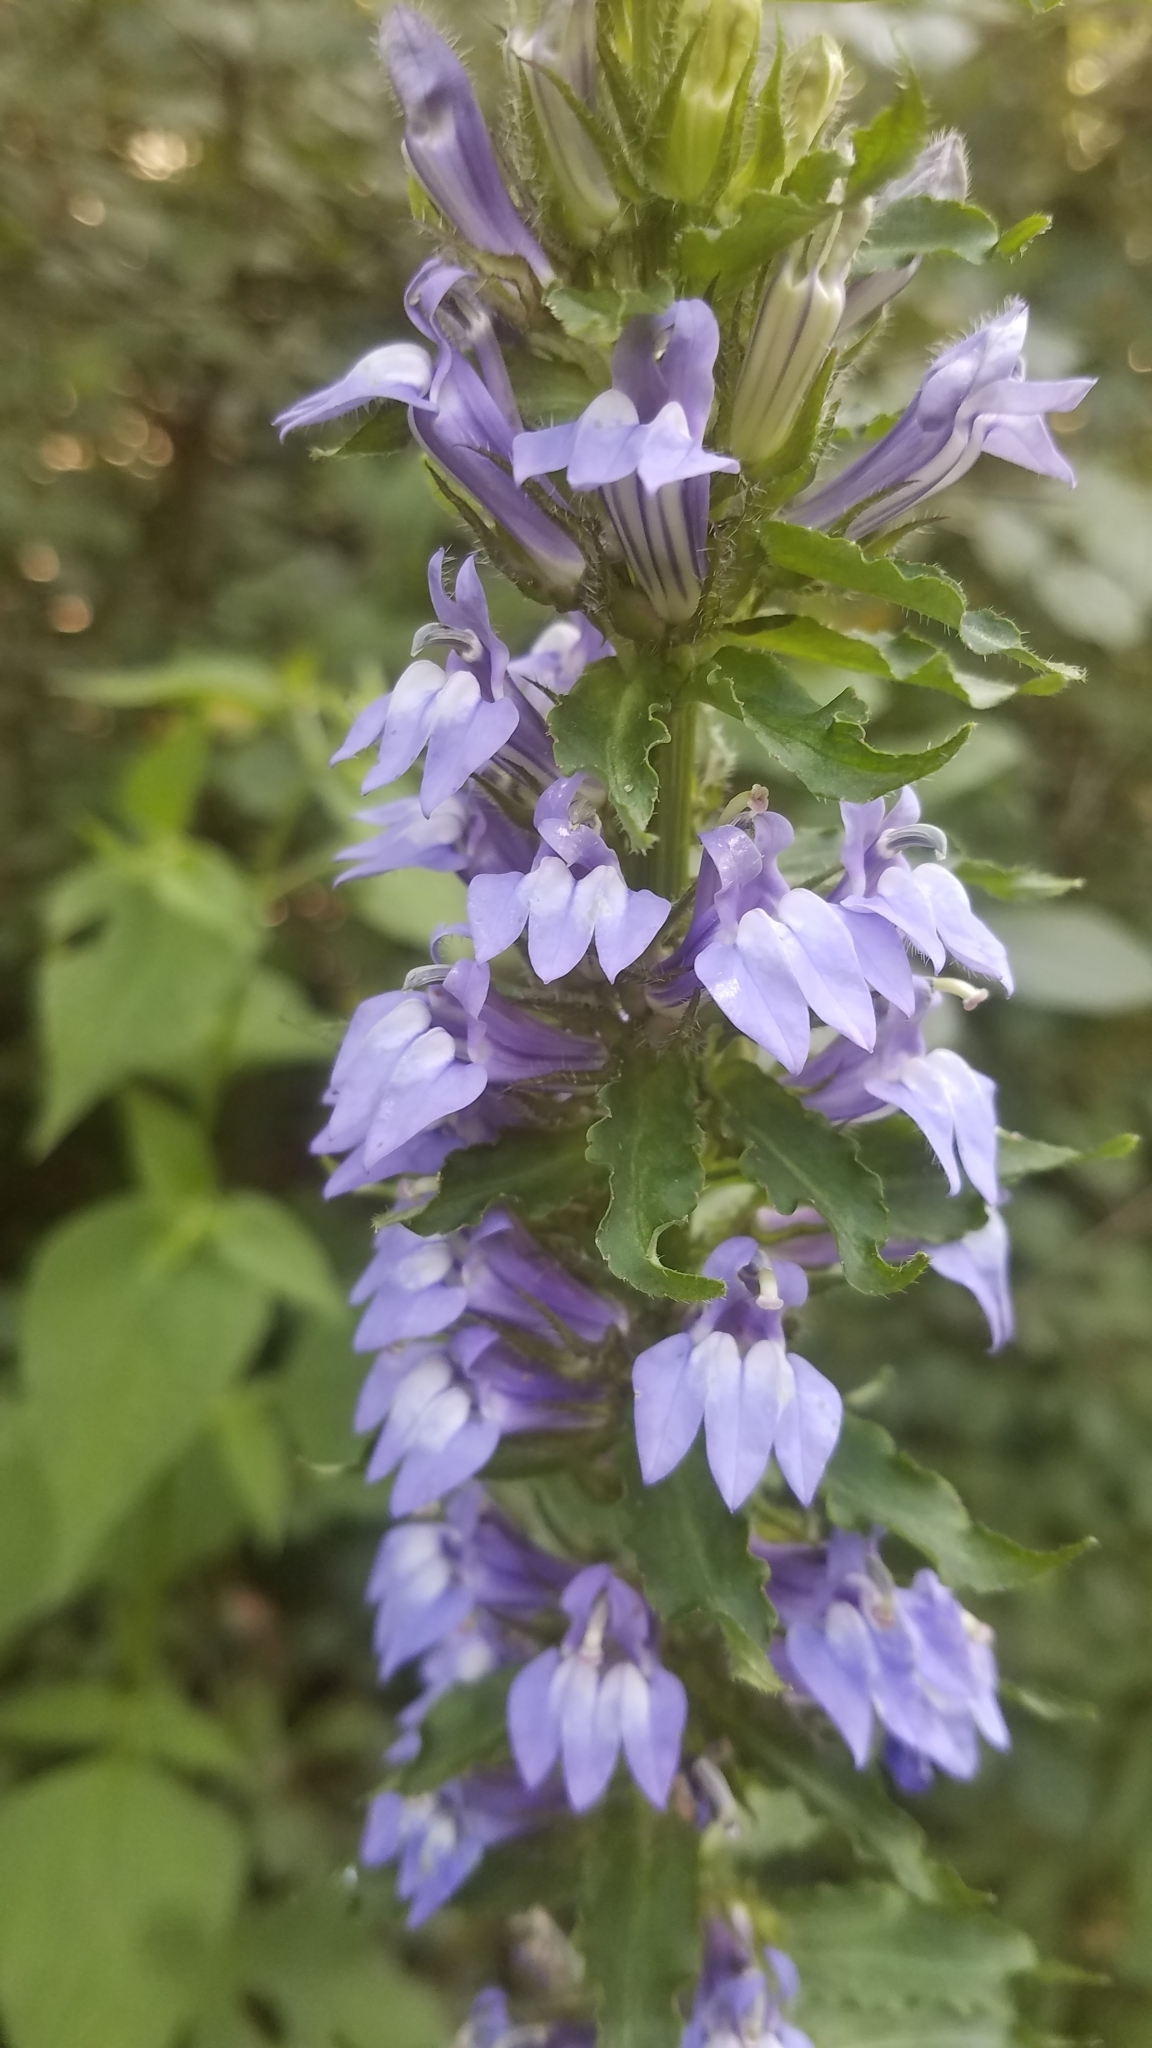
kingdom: Plantae
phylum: Tracheophyta
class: Magnoliopsida
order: Asterales
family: Campanulaceae
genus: Lobelia
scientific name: Lobelia siphilitica
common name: Great lobelia
